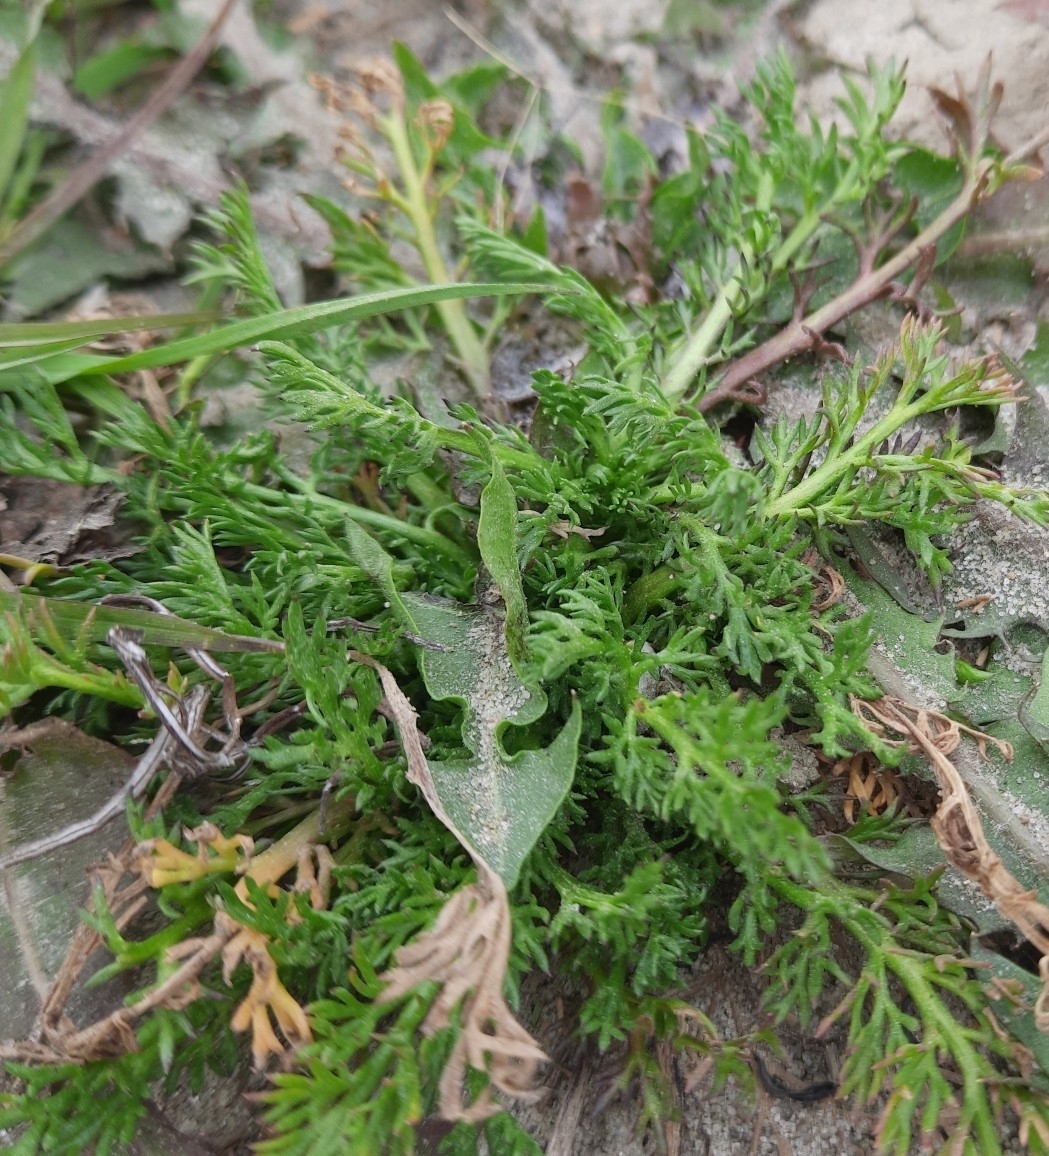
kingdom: Plantae
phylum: Tracheophyta
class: Magnoliopsida
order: Asterales
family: Asteraceae
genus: Matricaria
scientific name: Matricaria discoidea
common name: Disc mayweed
